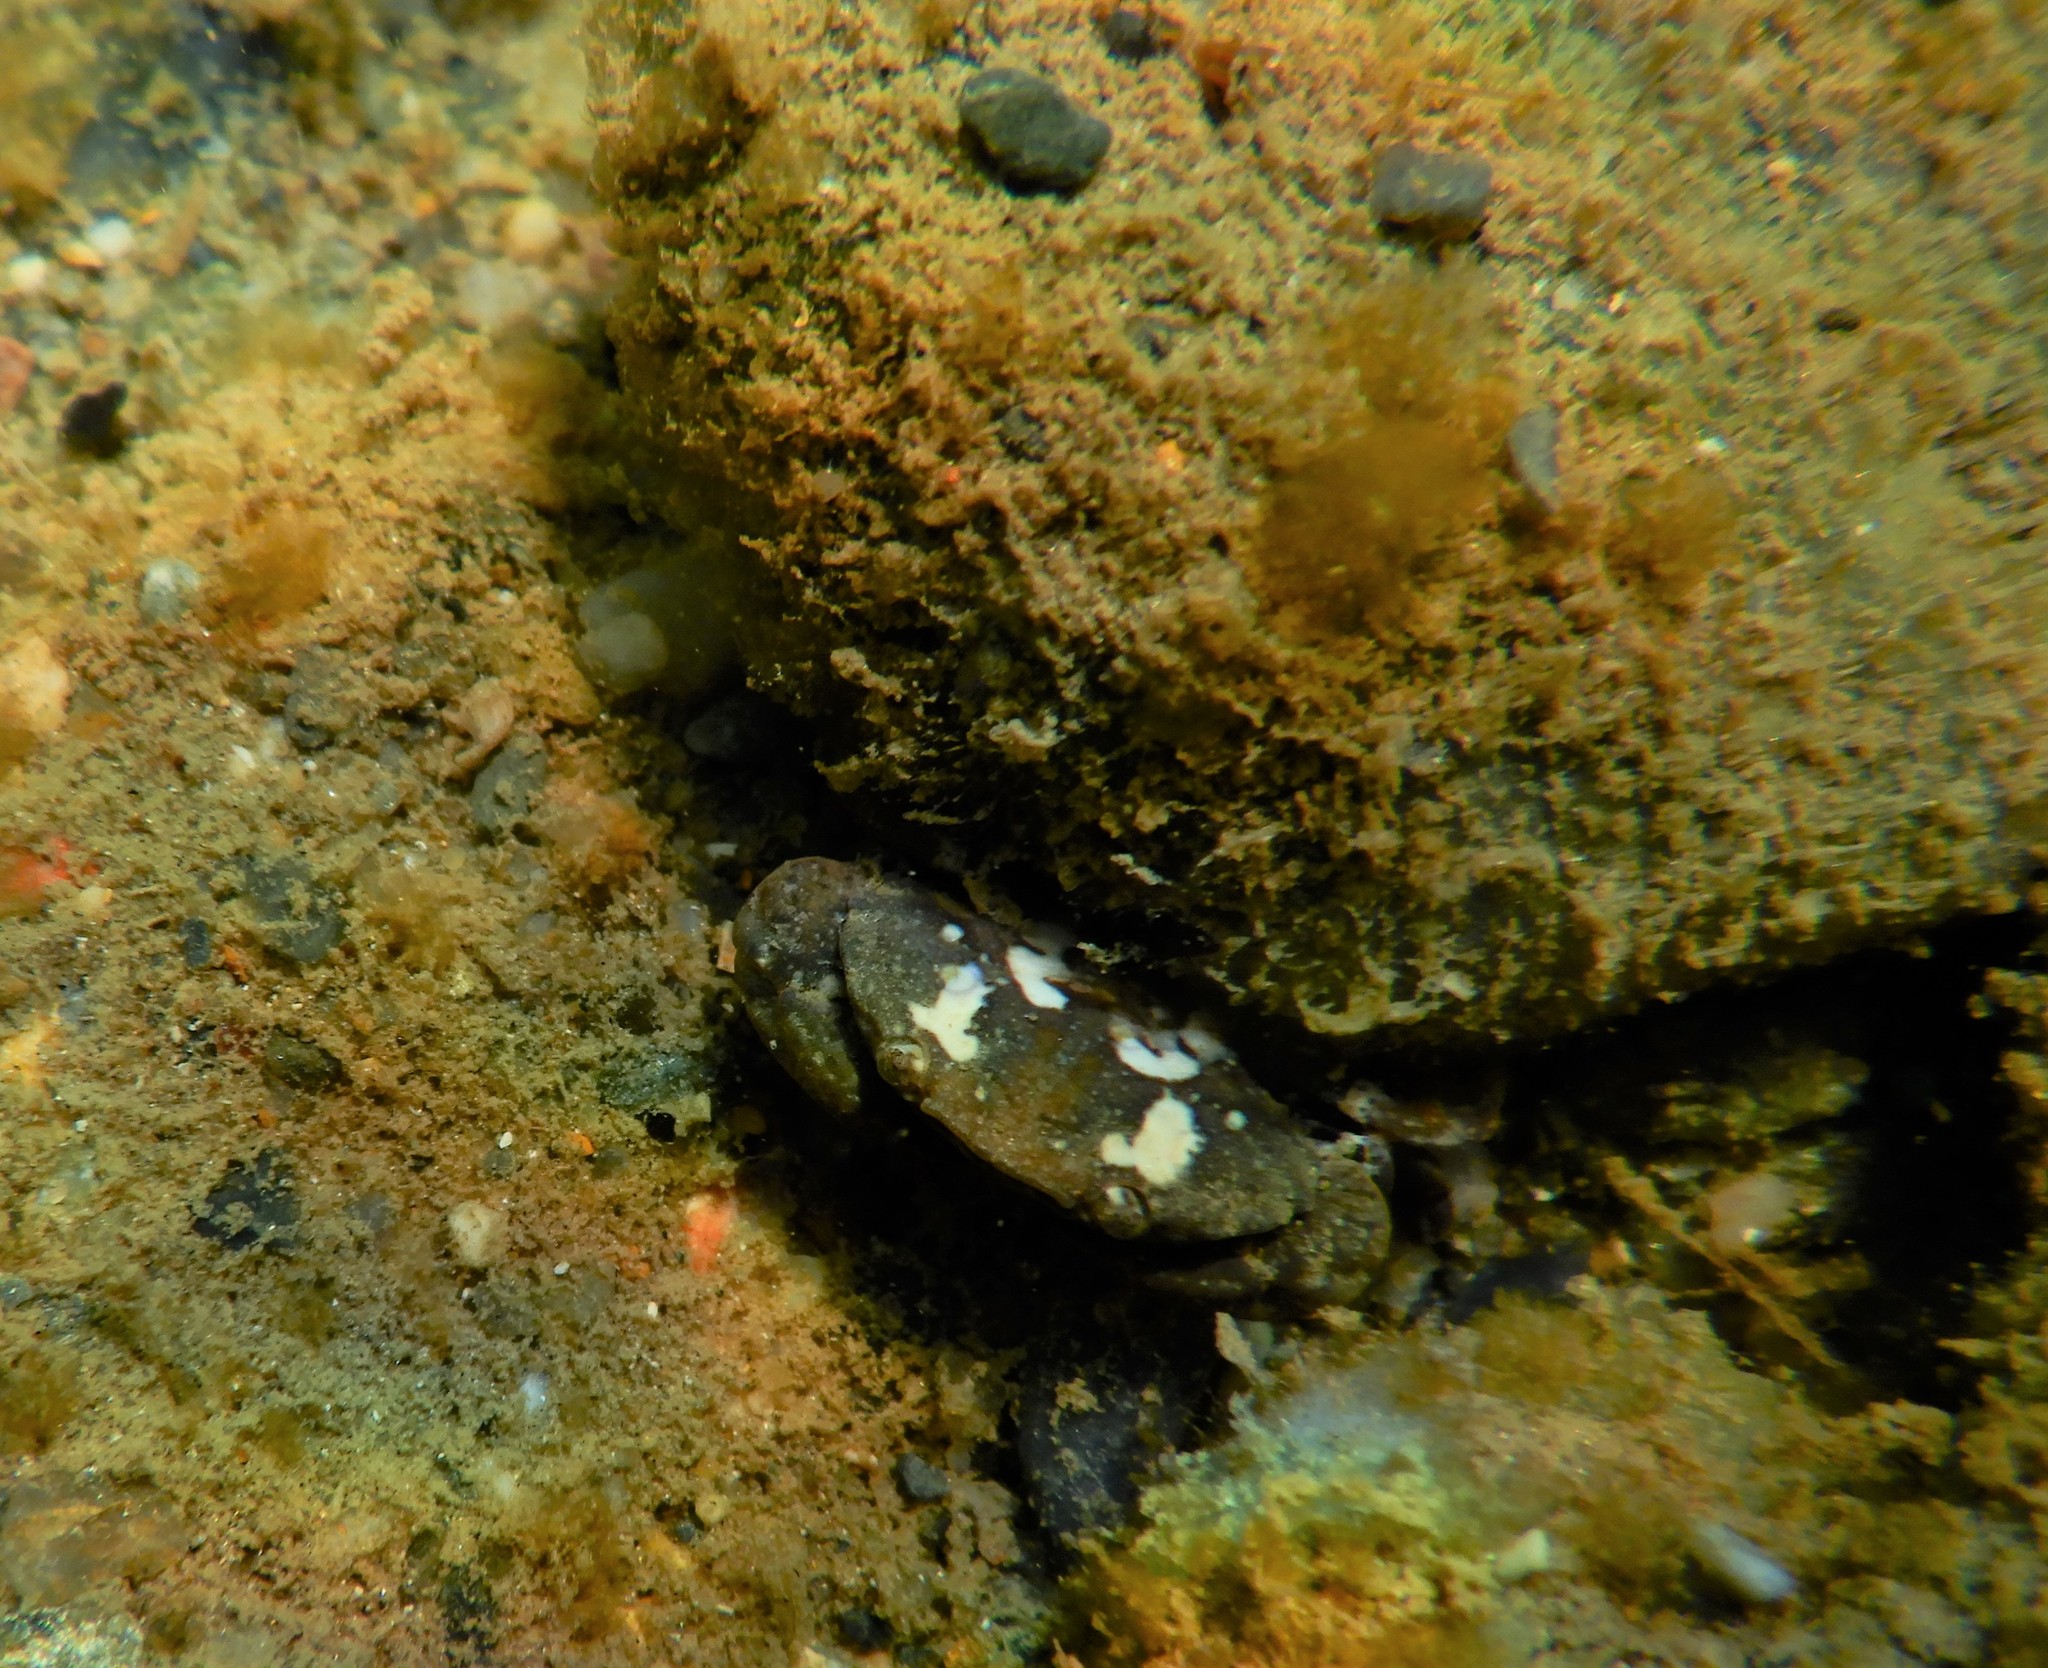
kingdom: Animalia
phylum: Arthropoda
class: Malacostraca
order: Decapoda
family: Xanthidae
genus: Xantho
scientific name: Xantho poressa
